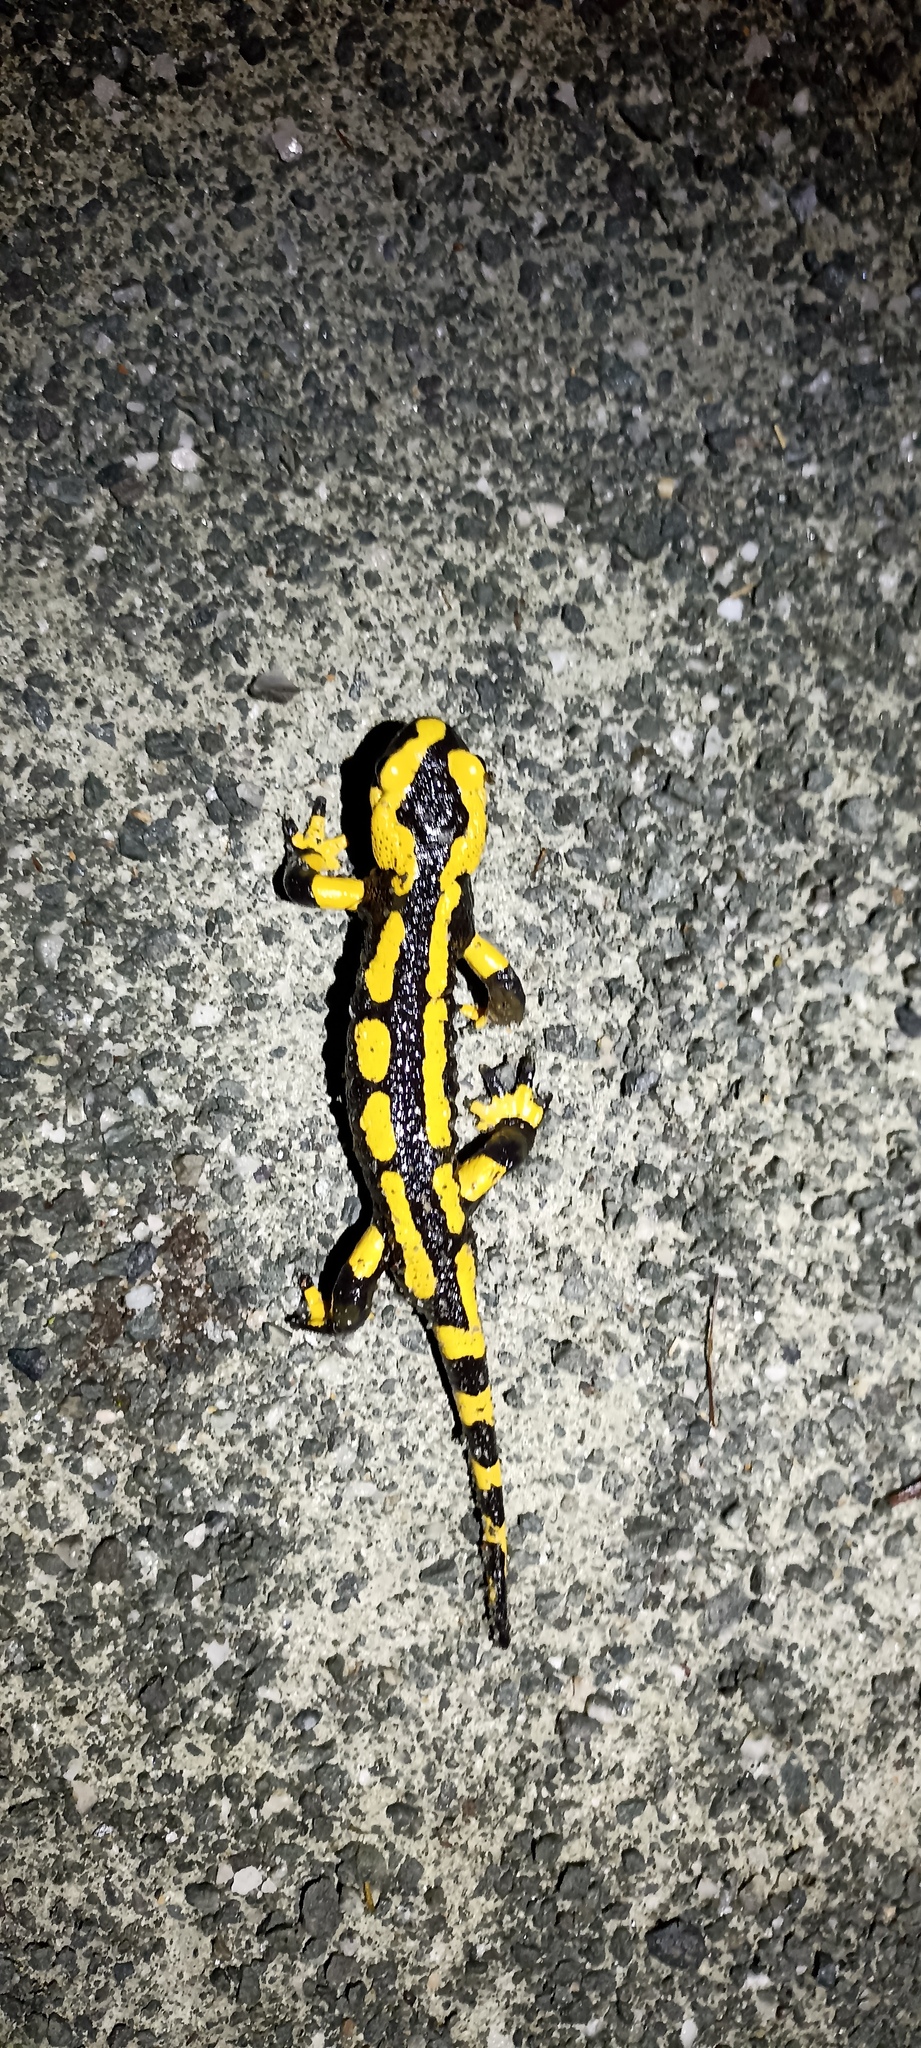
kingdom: Animalia
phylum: Chordata
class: Amphibia
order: Caudata
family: Salamandridae
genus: Salamandra
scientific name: Salamandra salamandra
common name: Fire salamander
